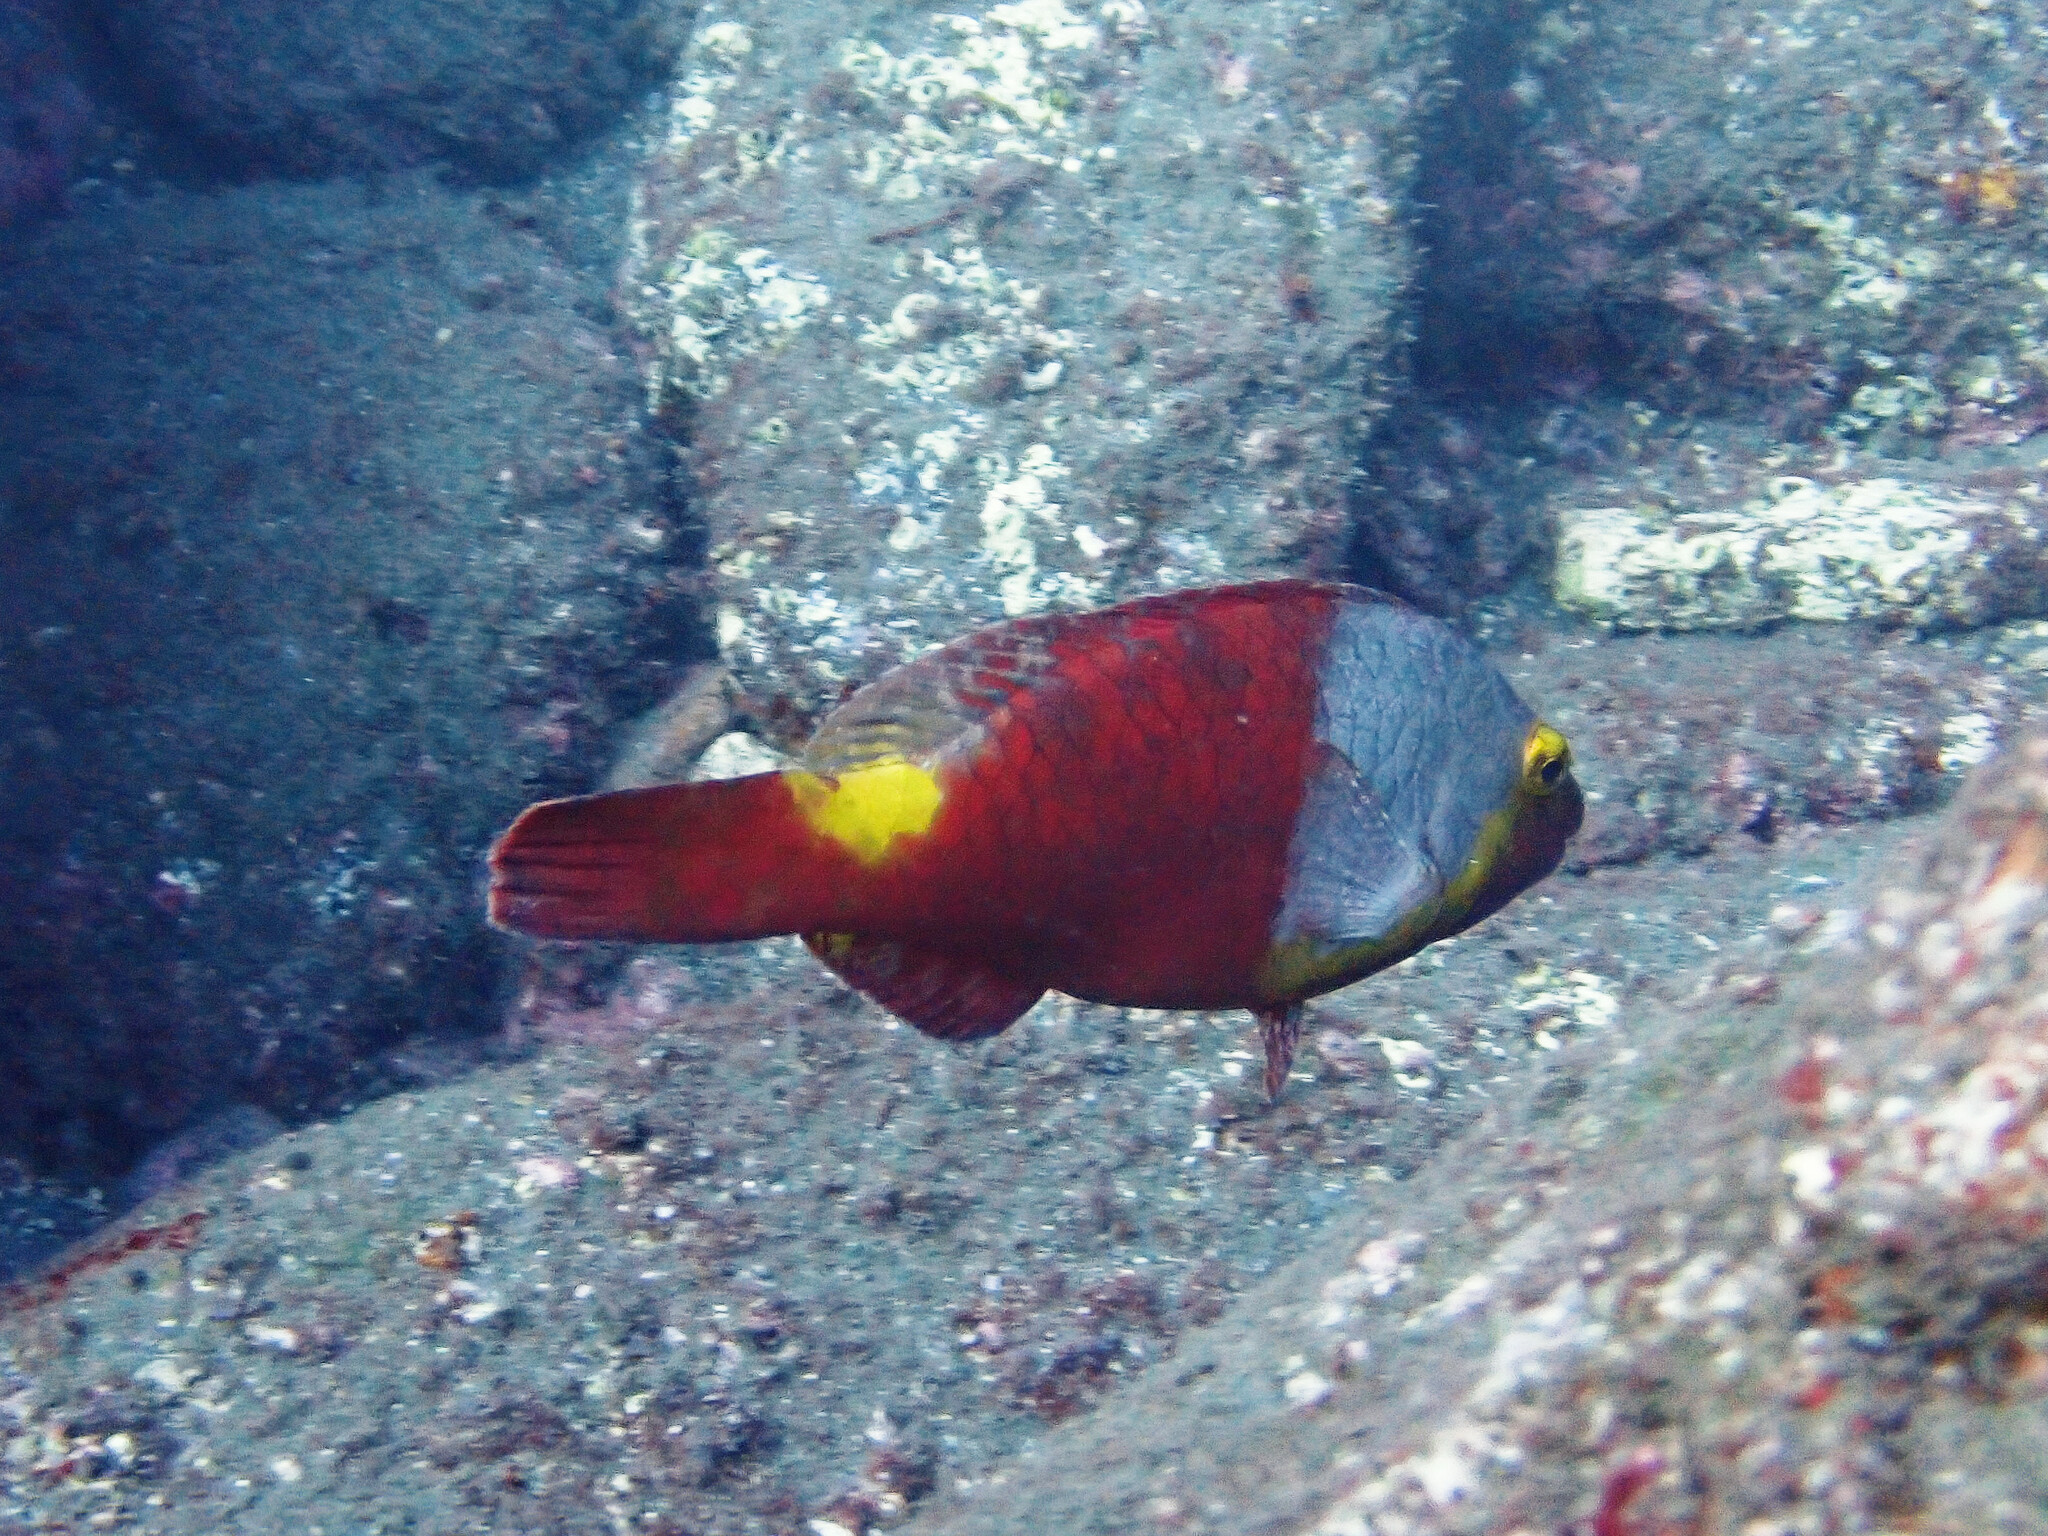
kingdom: Animalia
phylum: Chordata
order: Perciformes
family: Scaridae
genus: Sparisoma
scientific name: Sparisoma cretense
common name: Parrotfish
